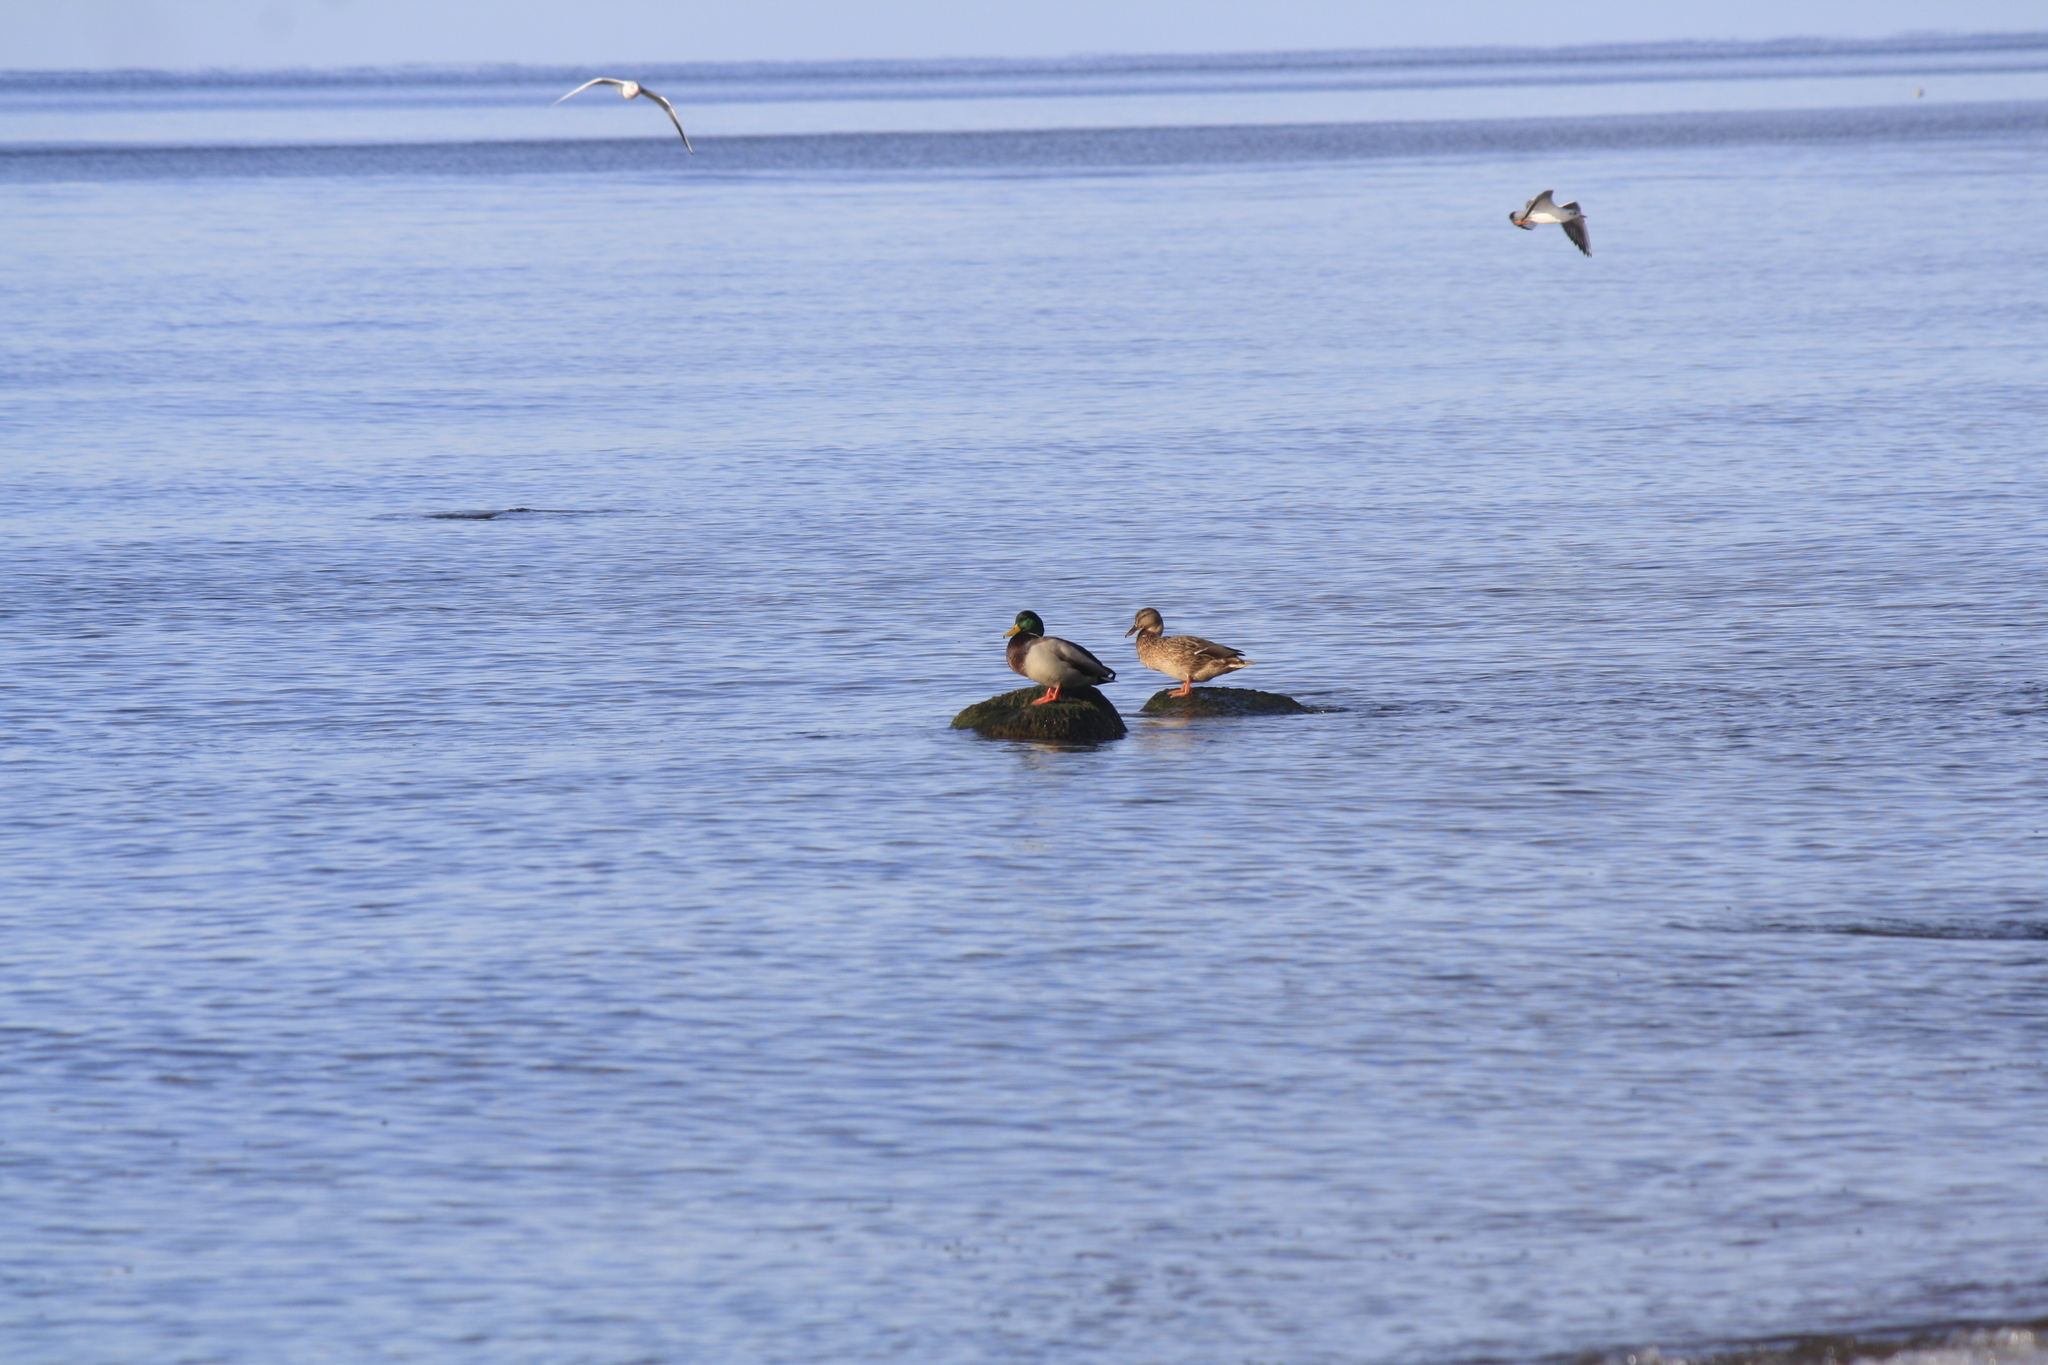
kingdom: Animalia
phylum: Chordata
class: Aves
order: Anseriformes
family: Anatidae
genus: Anas
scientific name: Anas platyrhynchos
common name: Mallard
